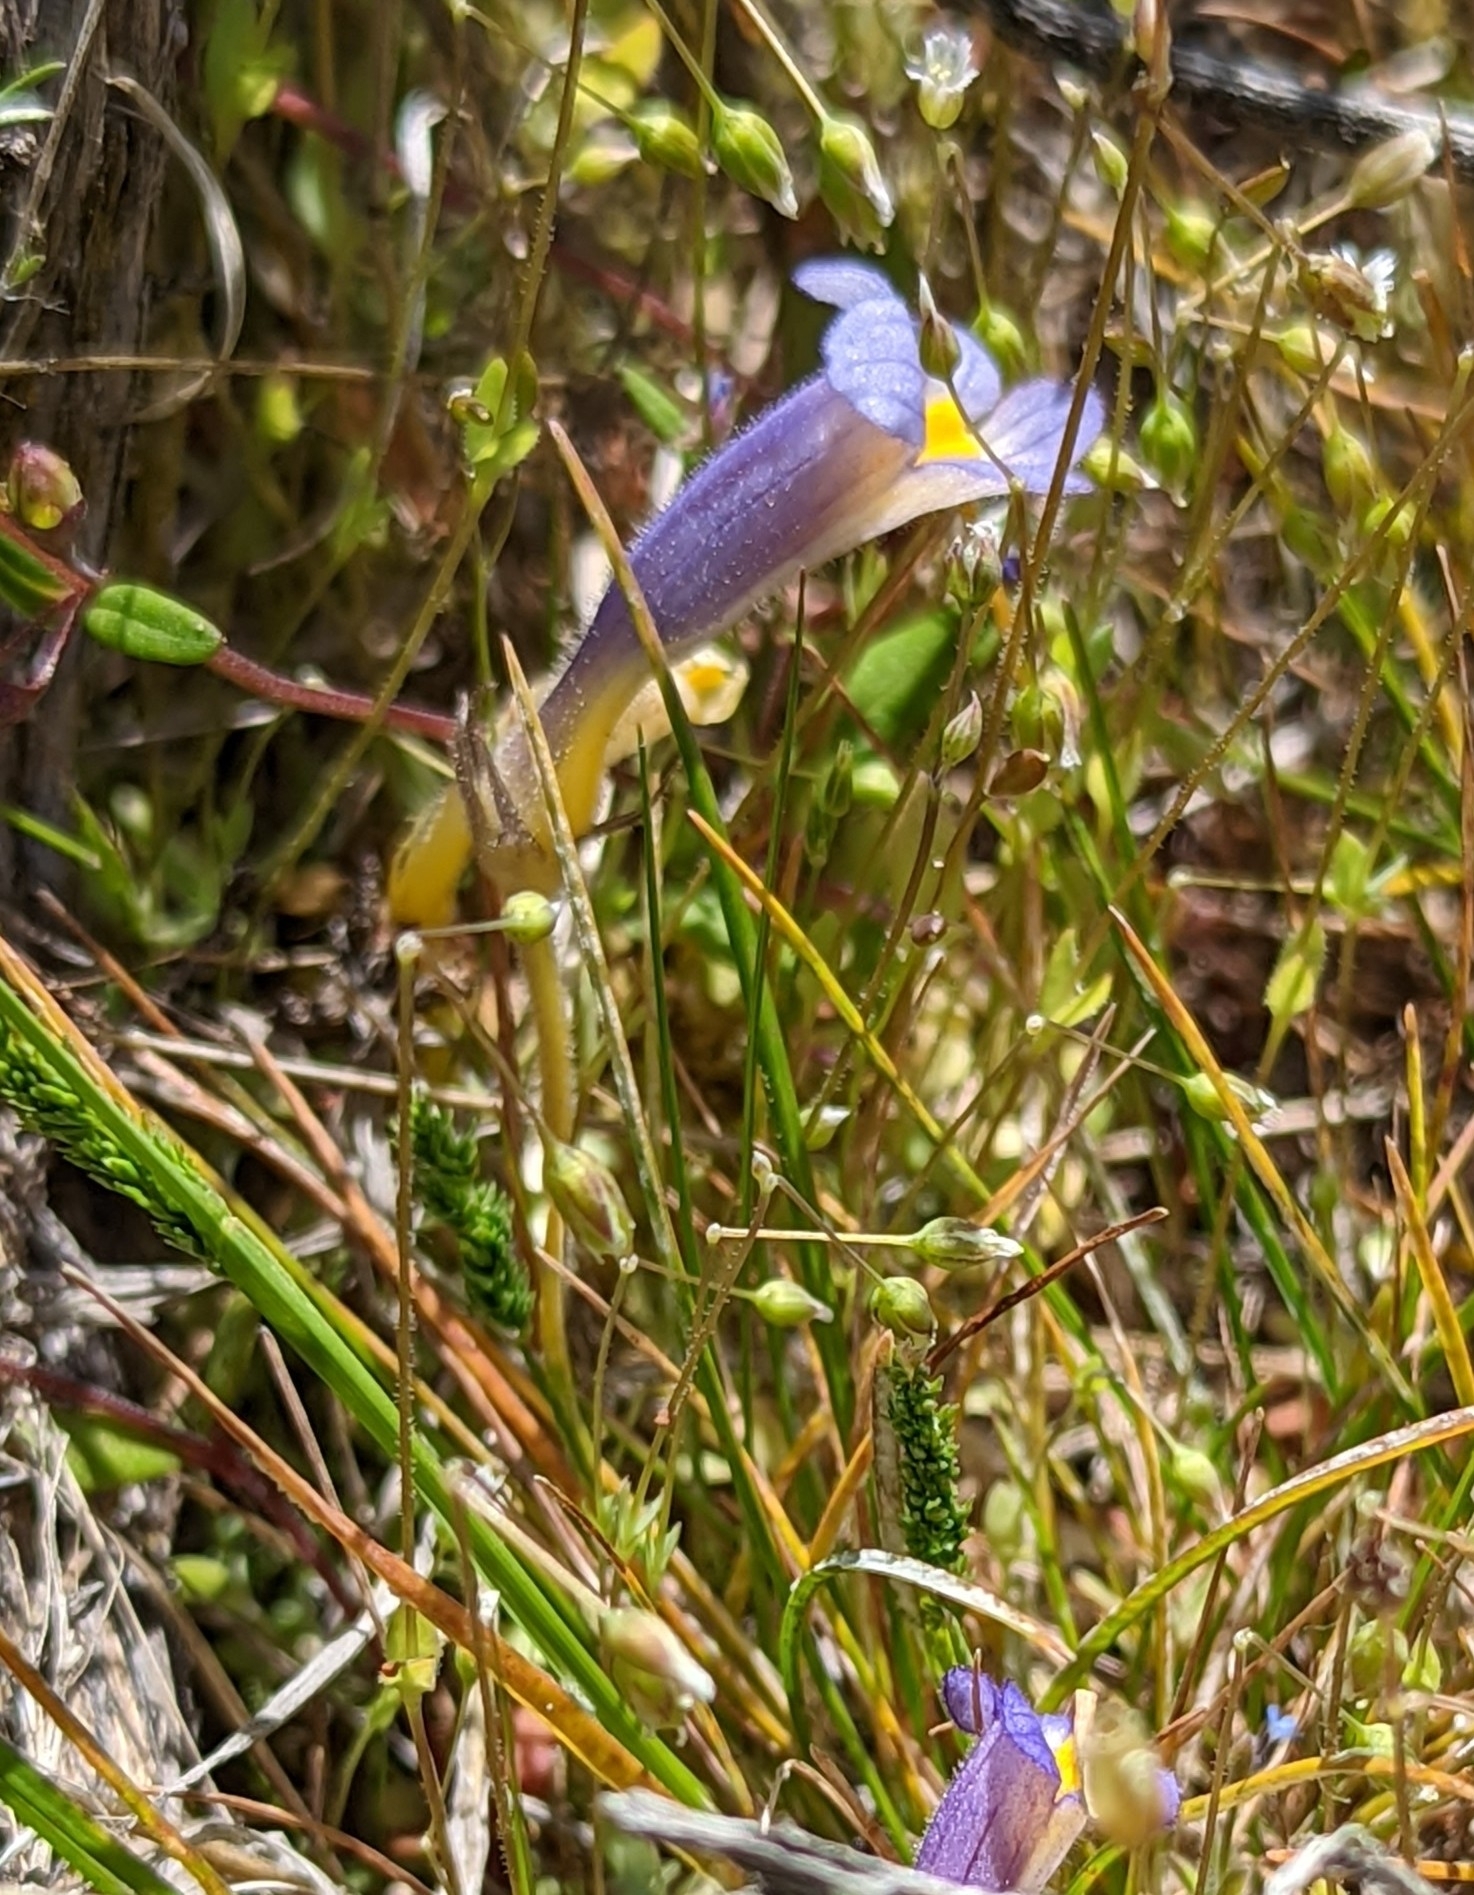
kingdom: Plantae
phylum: Tracheophyta
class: Magnoliopsida
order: Lamiales
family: Orobanchaceae
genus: Aphyllon
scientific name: Aphyllon uniflorum
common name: One-flowered broomrape
